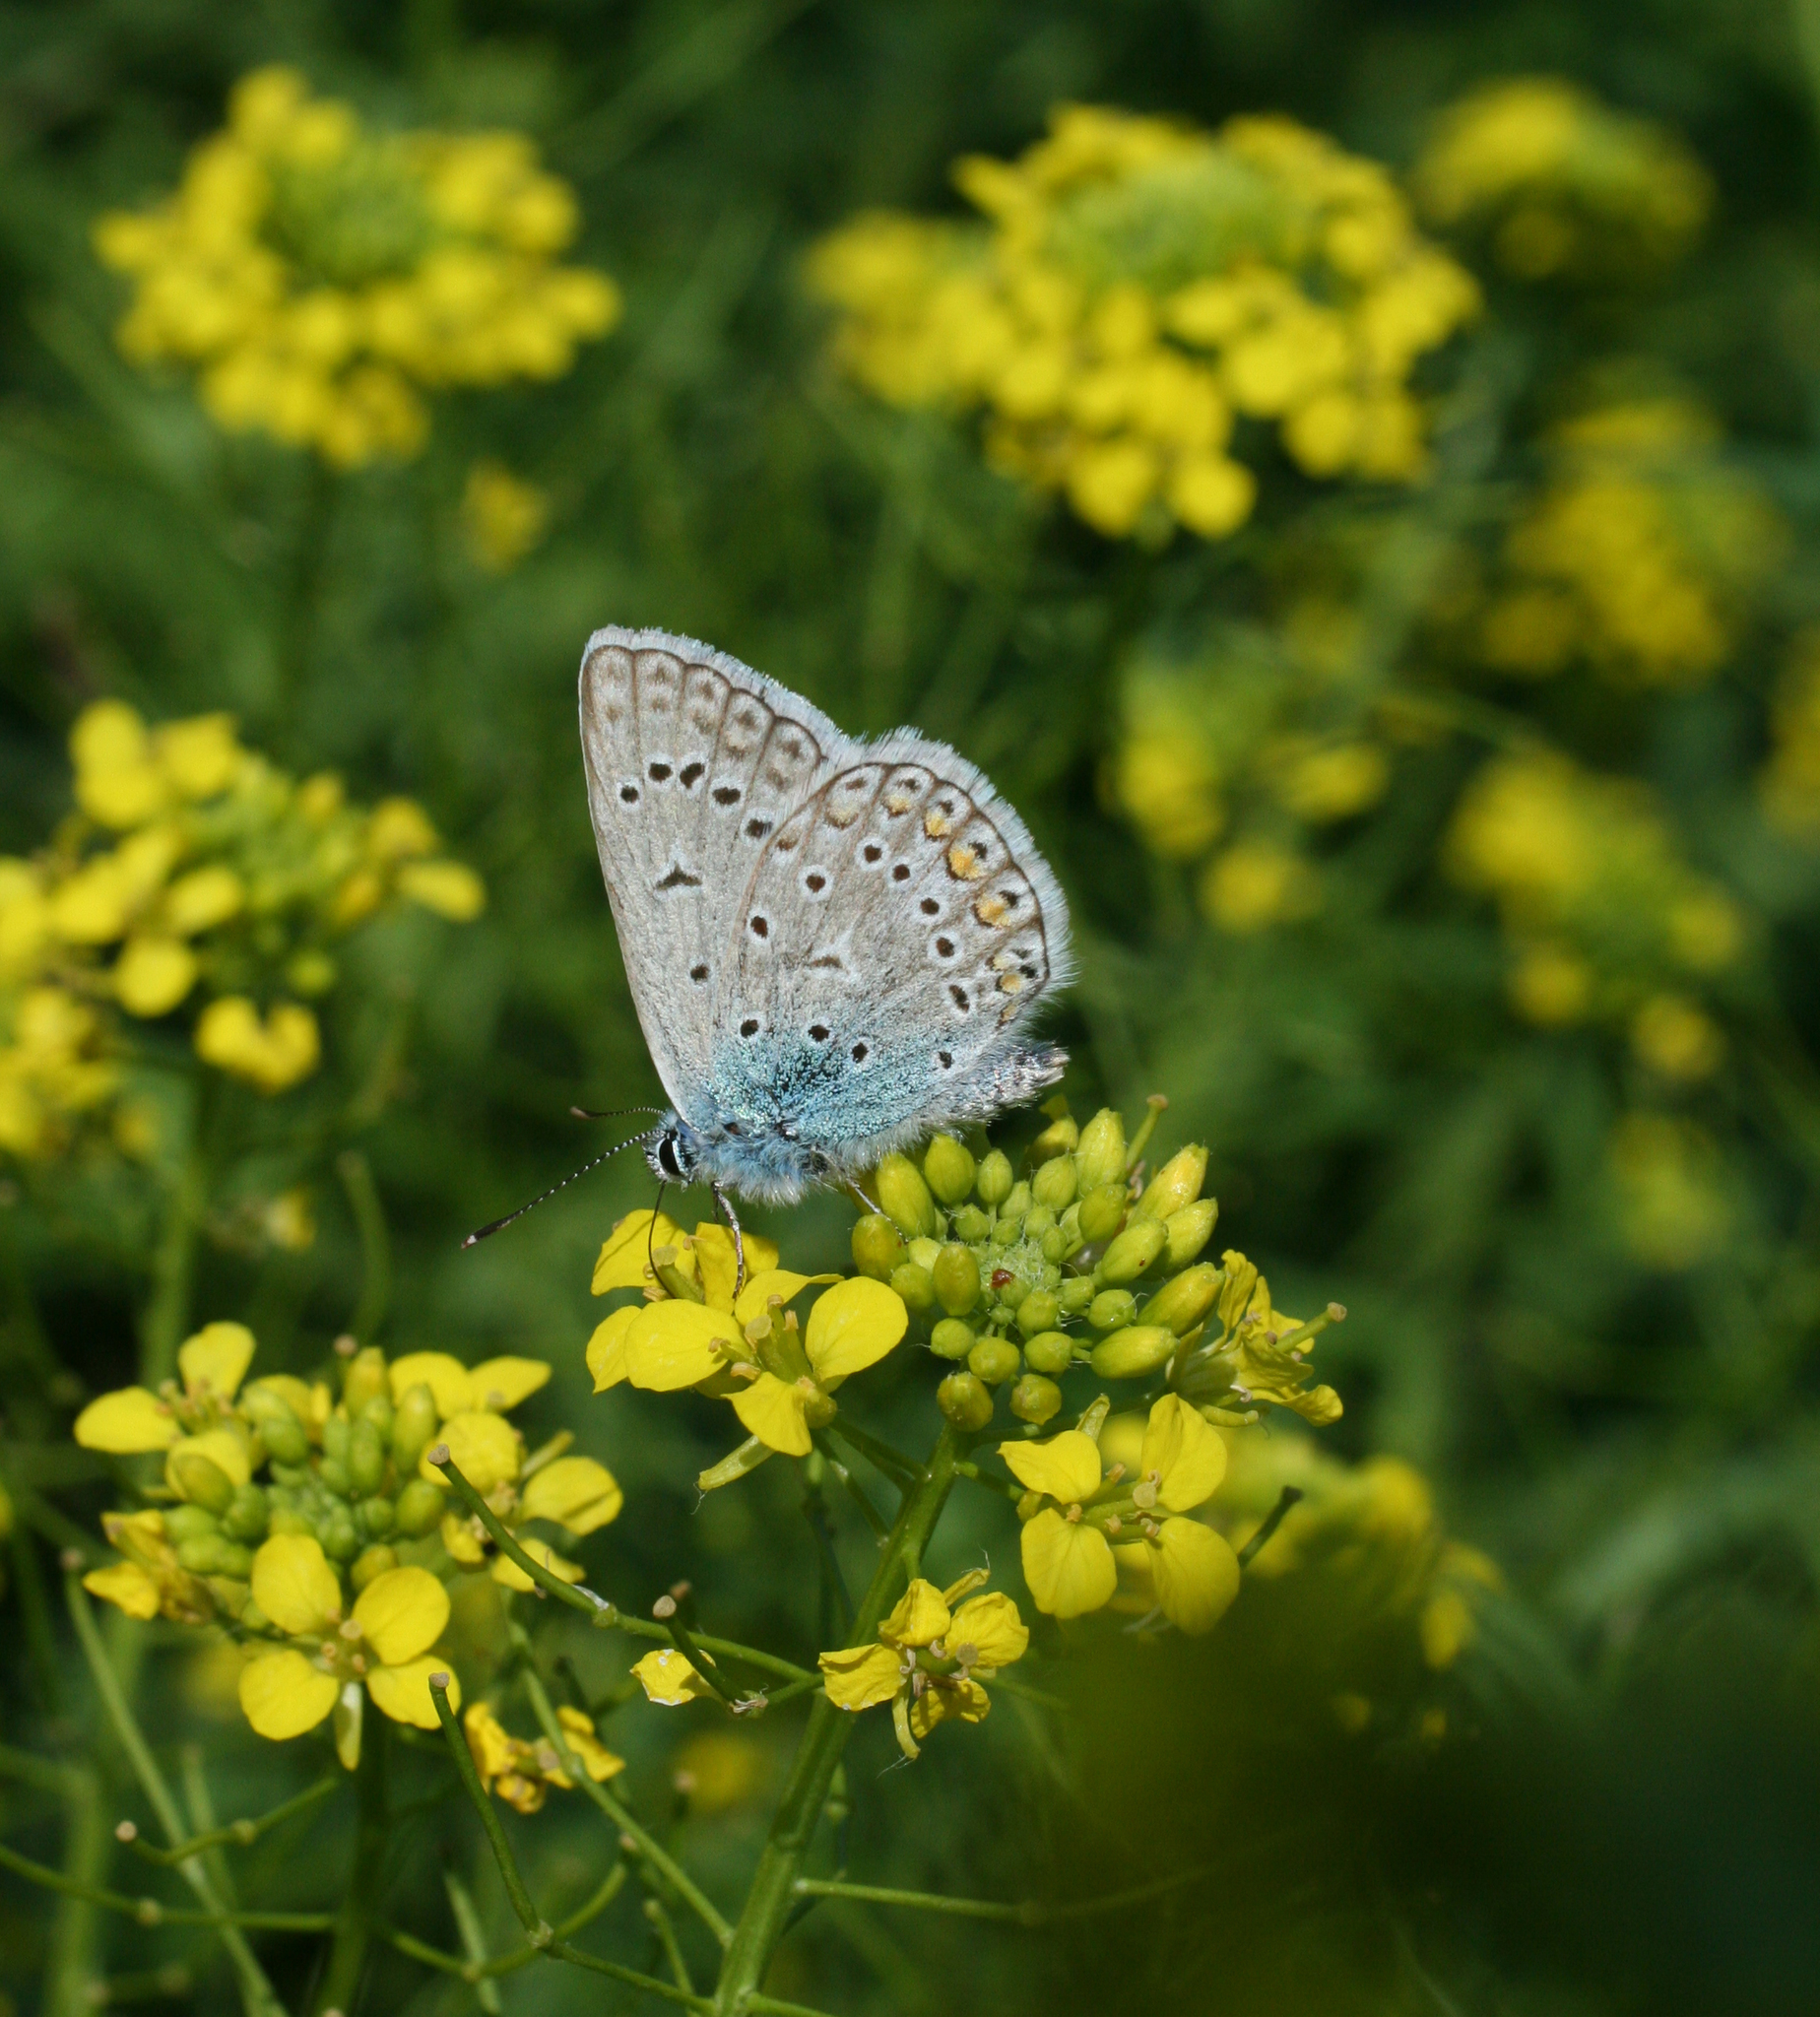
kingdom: Animalia
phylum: Arthropoda
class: Insecta
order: Lepidoptera
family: Lycaenidae
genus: Polyommatus
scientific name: Polyommatus icarus
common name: Common blue
